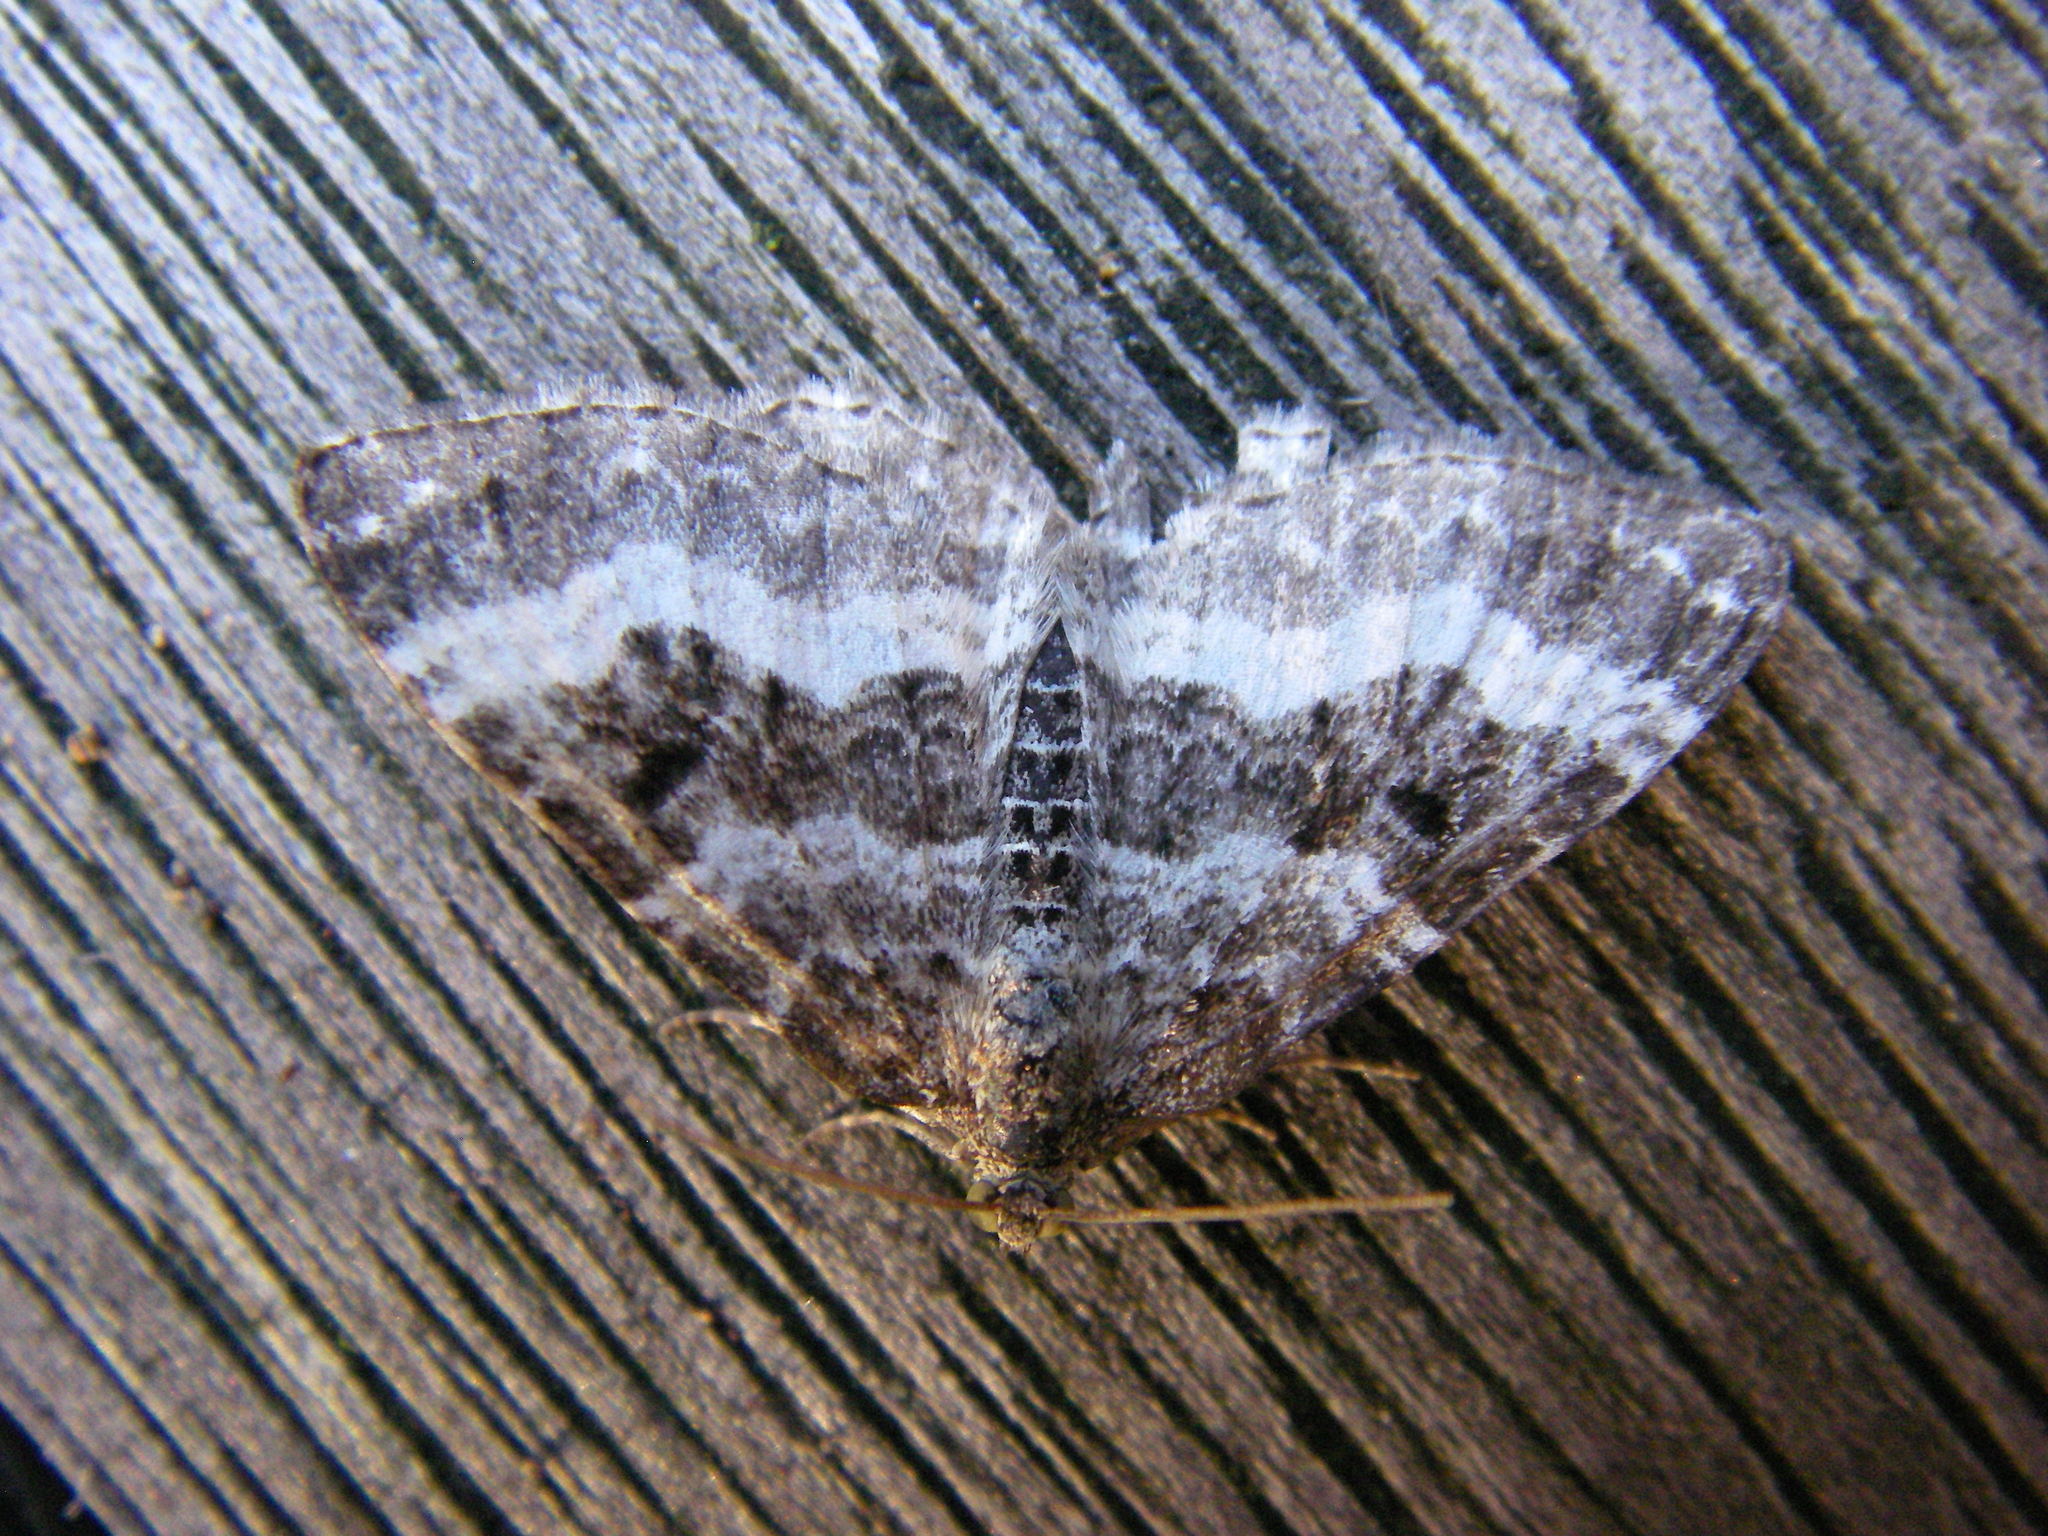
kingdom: Animalia
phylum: Arthropoda
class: Insecta
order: Lepidoptera
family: Geometridae
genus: Epirrhoe
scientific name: Epirrhoe alternata
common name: Common carpet
